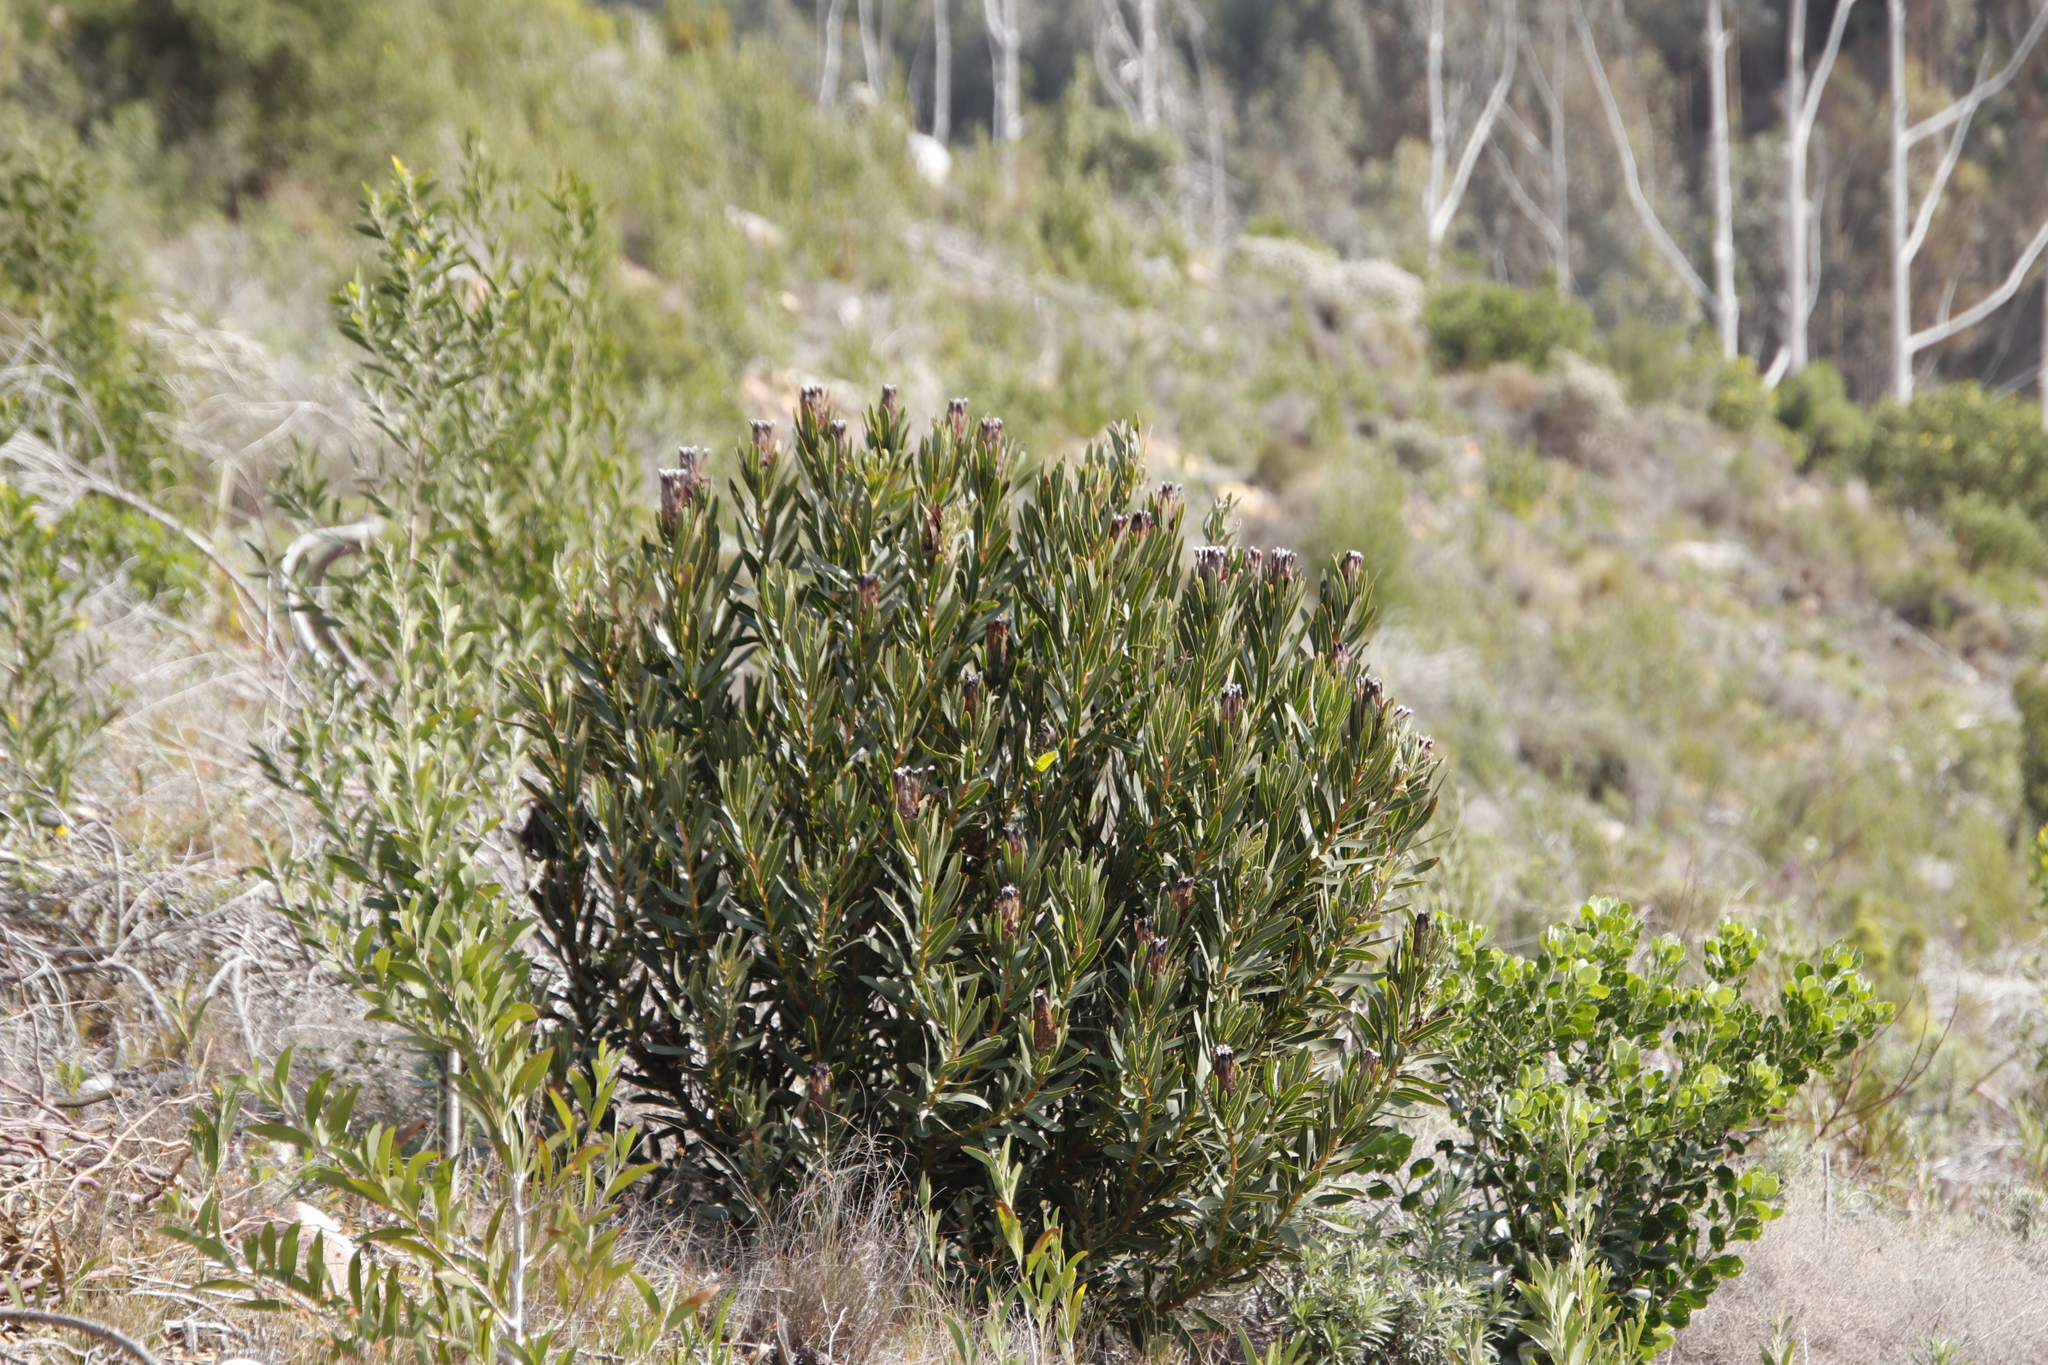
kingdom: Plantae
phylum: Tracheophyta
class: Magnoliopsida
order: Proteales
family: Proteaceae
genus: Protea
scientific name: Protea lepidocarpodendron
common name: Black-bearded protea
